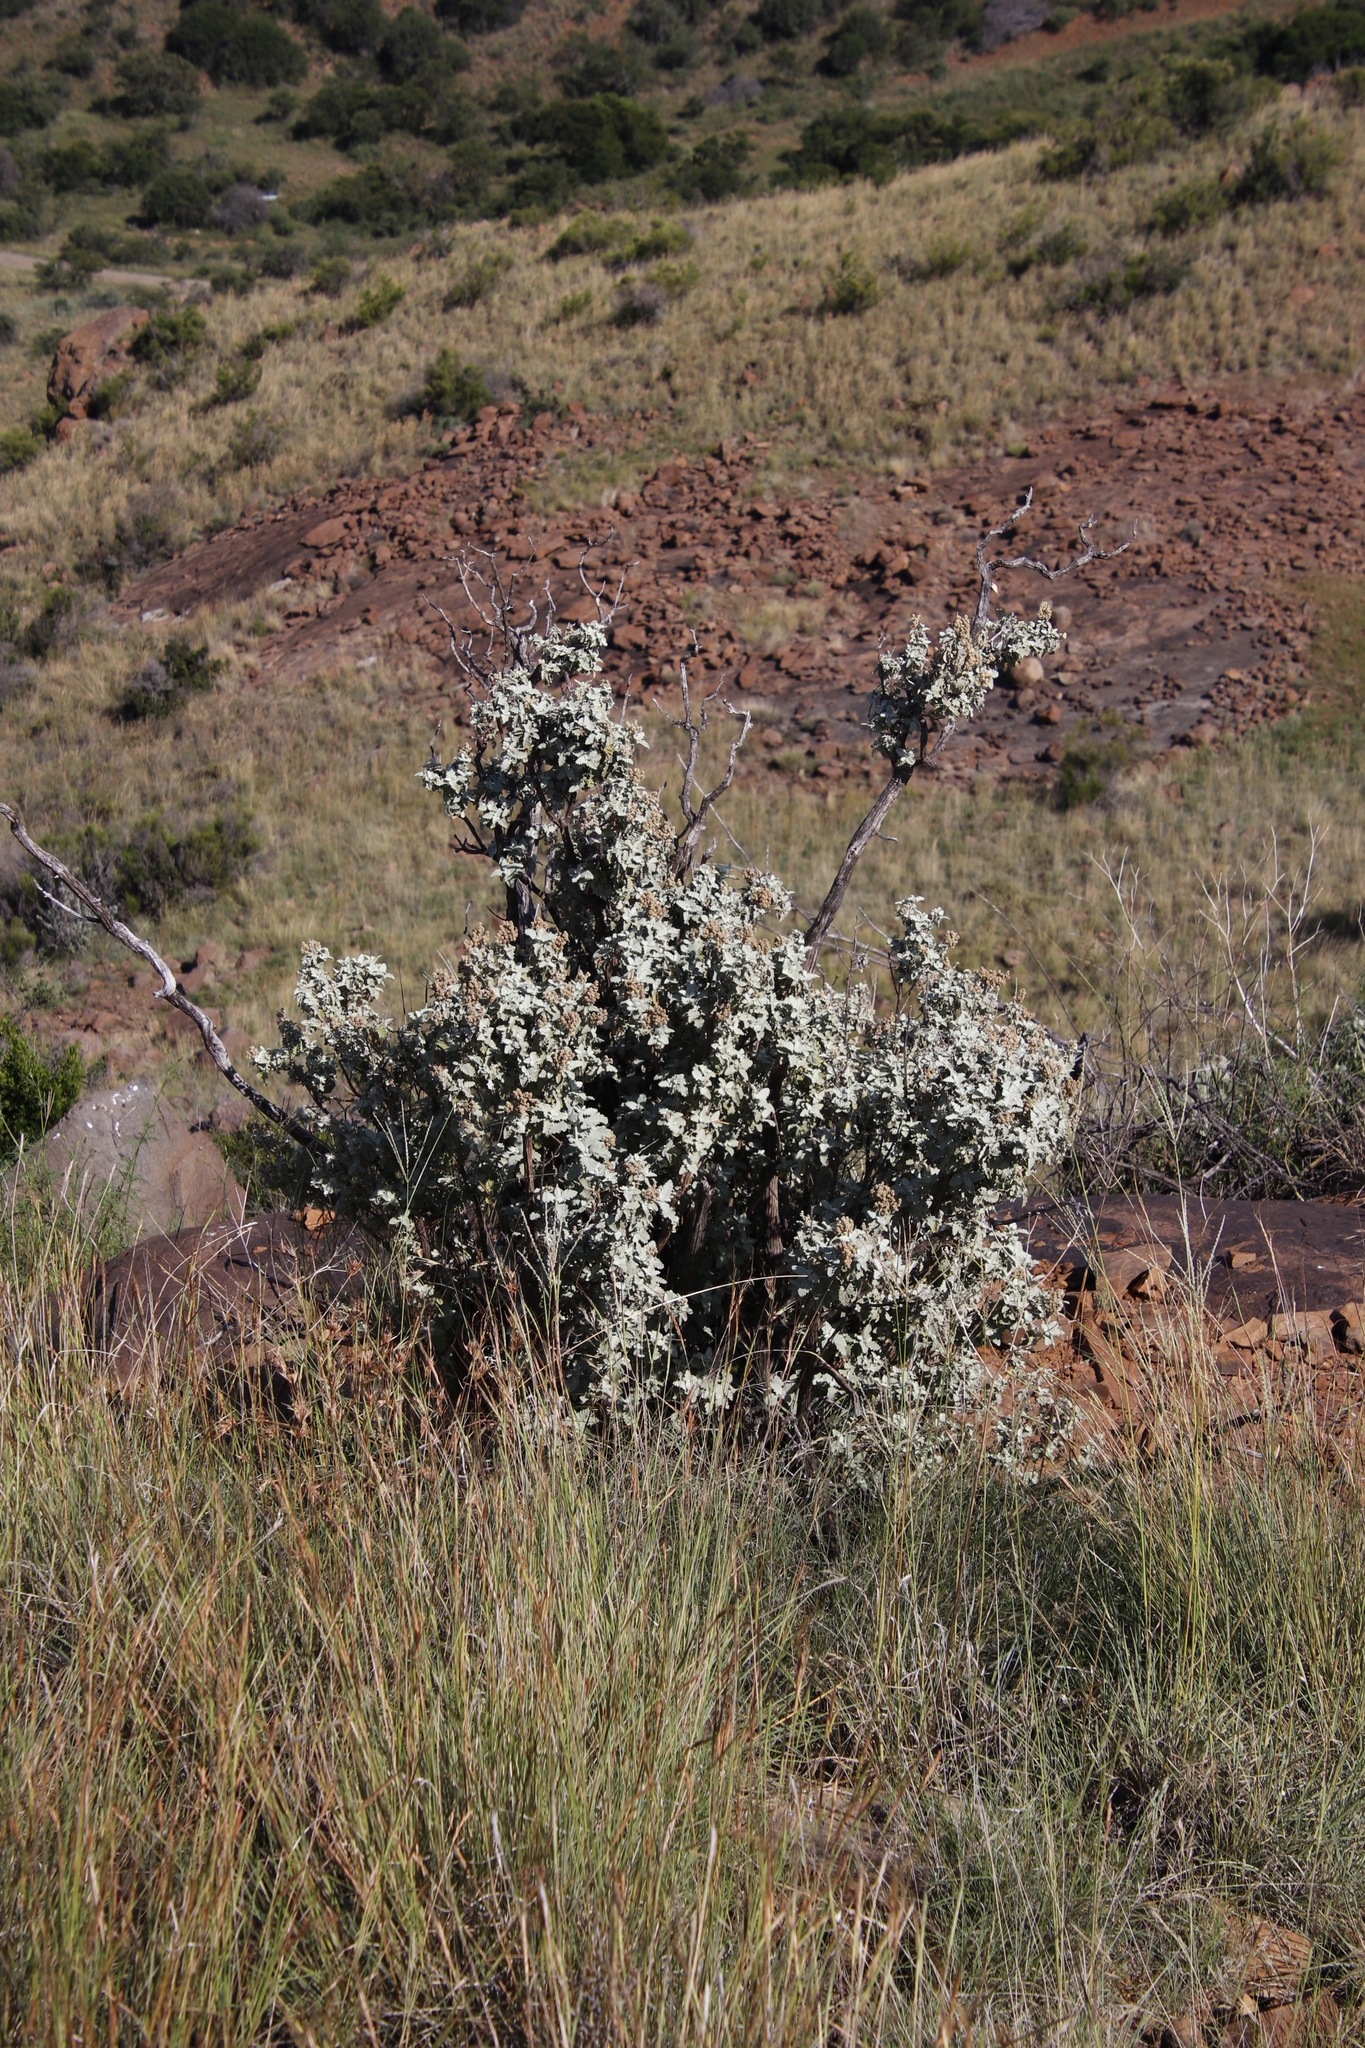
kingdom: Plantae
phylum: Tracheophyta
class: Magnoliopsida
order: Lamiales
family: Scrophulariaceae
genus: Buddleja
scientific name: Buddleja glomerata
